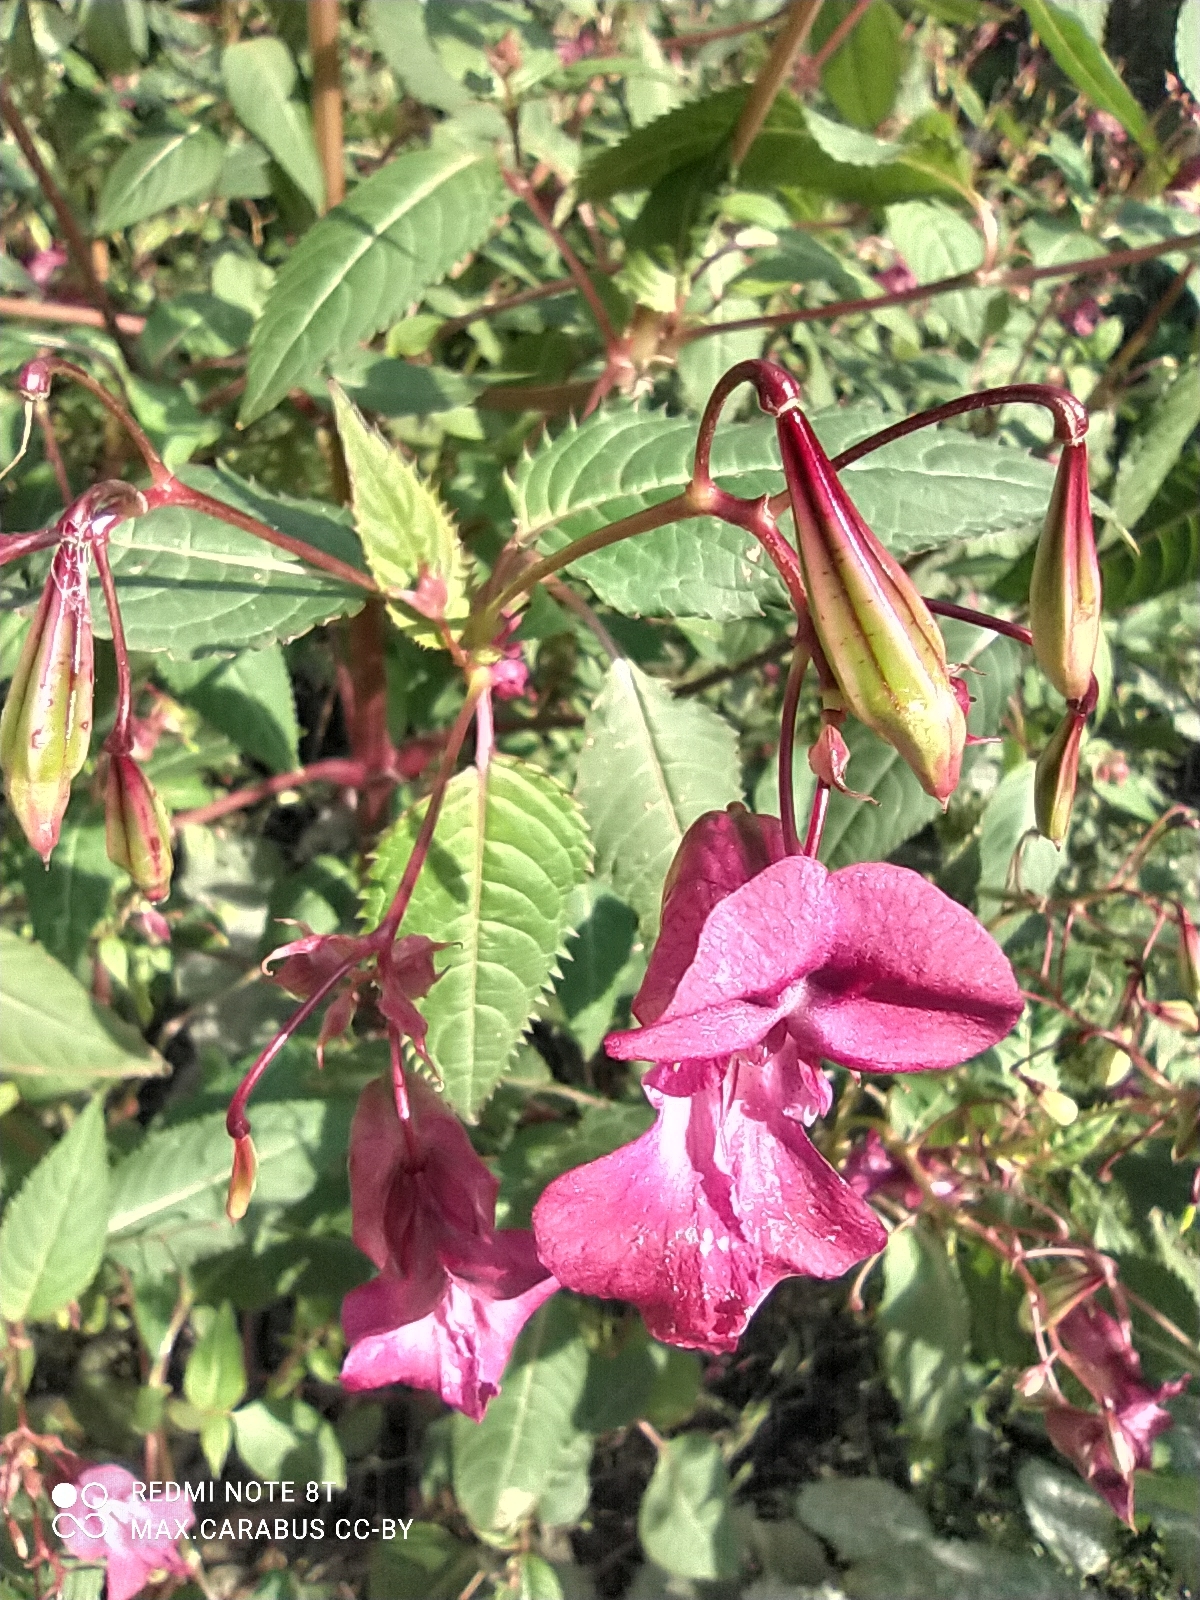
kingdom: Plantae
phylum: Tracheophyta
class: Magnoliopsida
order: Ericales
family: Balsaminaceae
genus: Impatiens
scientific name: Impatiens glandulifera
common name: Himalayan balsam
